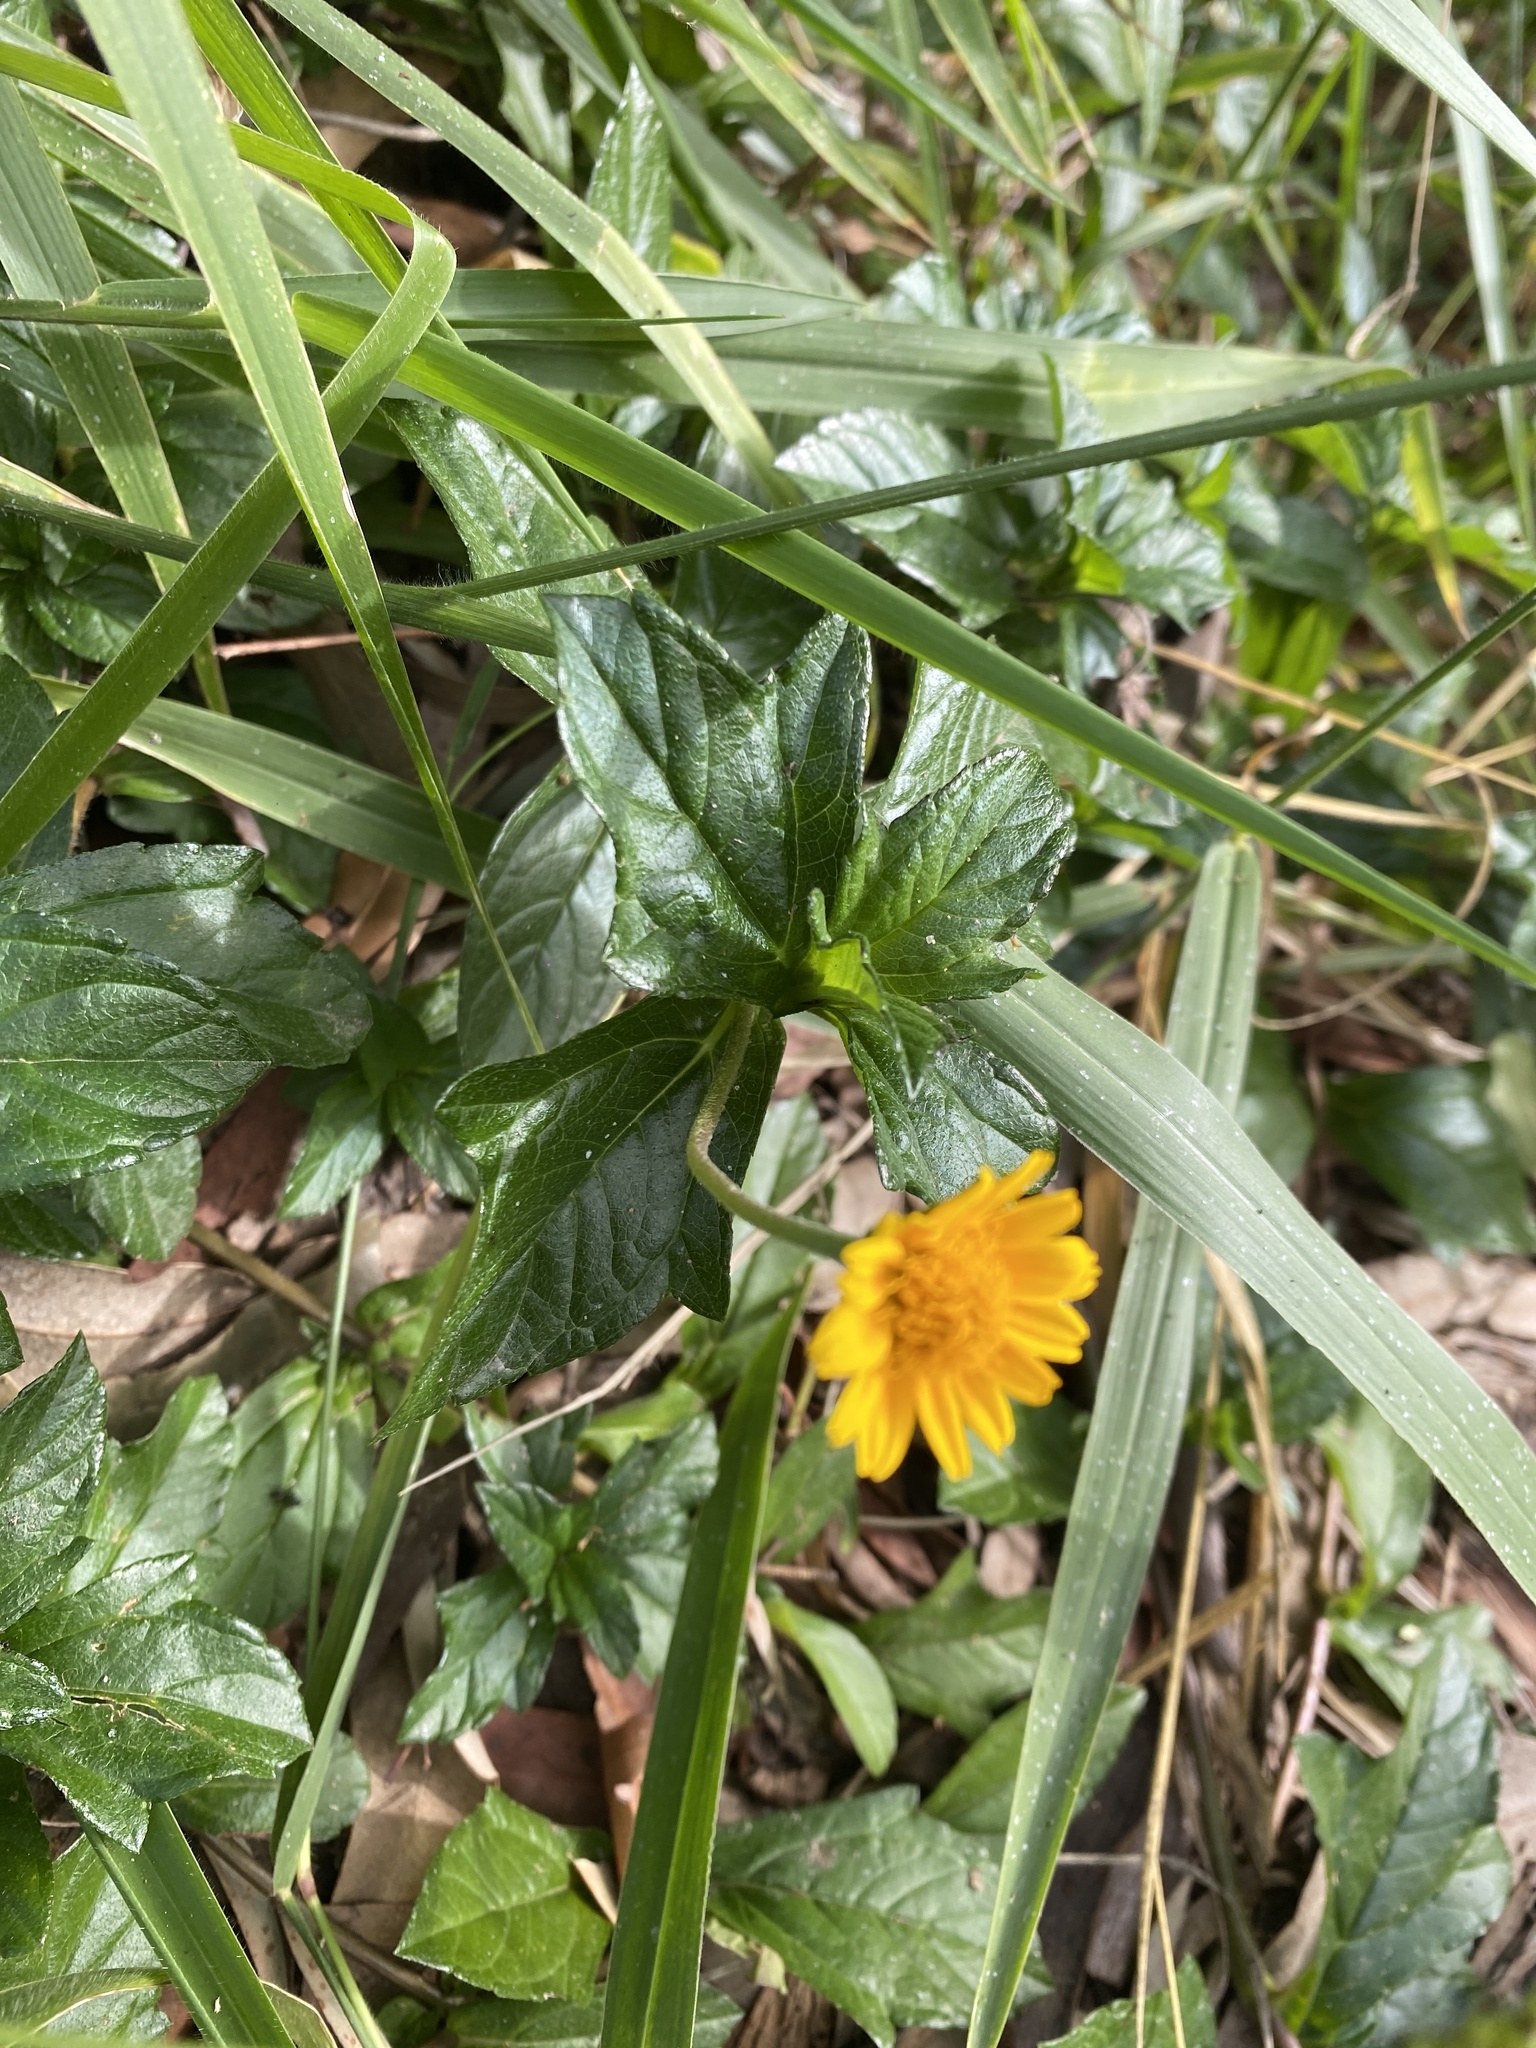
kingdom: Plantae
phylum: Tracheophyta
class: Magnoliopsida
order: Asterales
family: Asteraceae
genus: Sphagneticola
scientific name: Sphagneticola trilobata
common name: Bay biscayne creeping-oxeye
